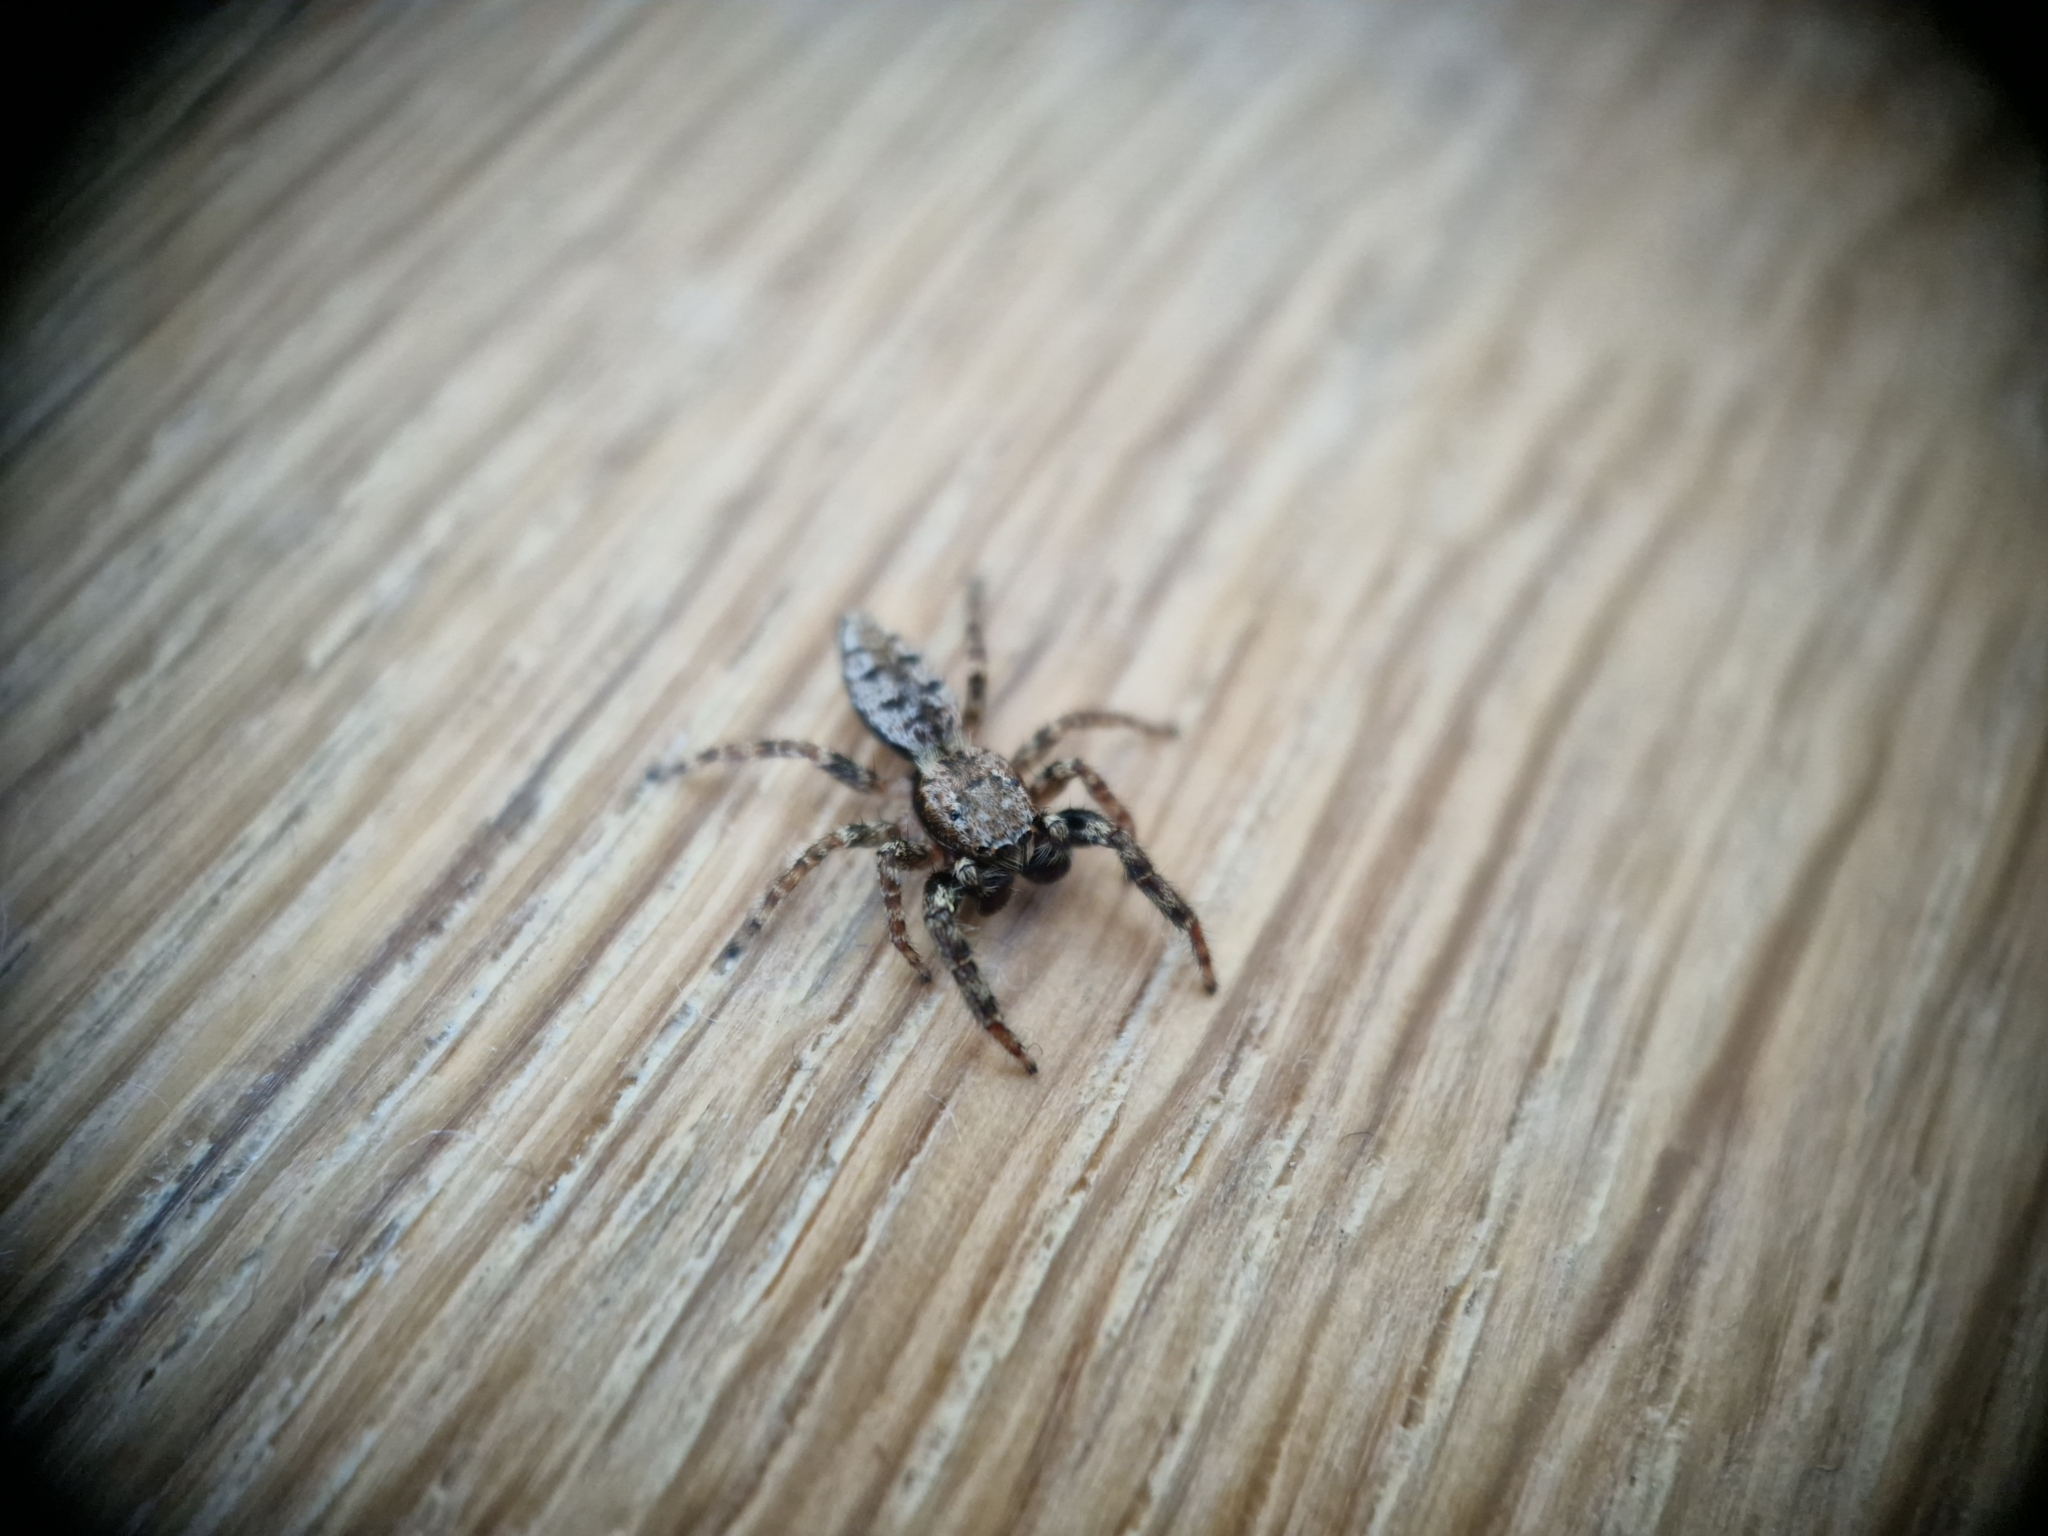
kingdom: Animalia
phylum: Arthropoda
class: Arachnida
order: Araneae
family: Salticidae
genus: Marpissa
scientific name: Marpissa muscosa
